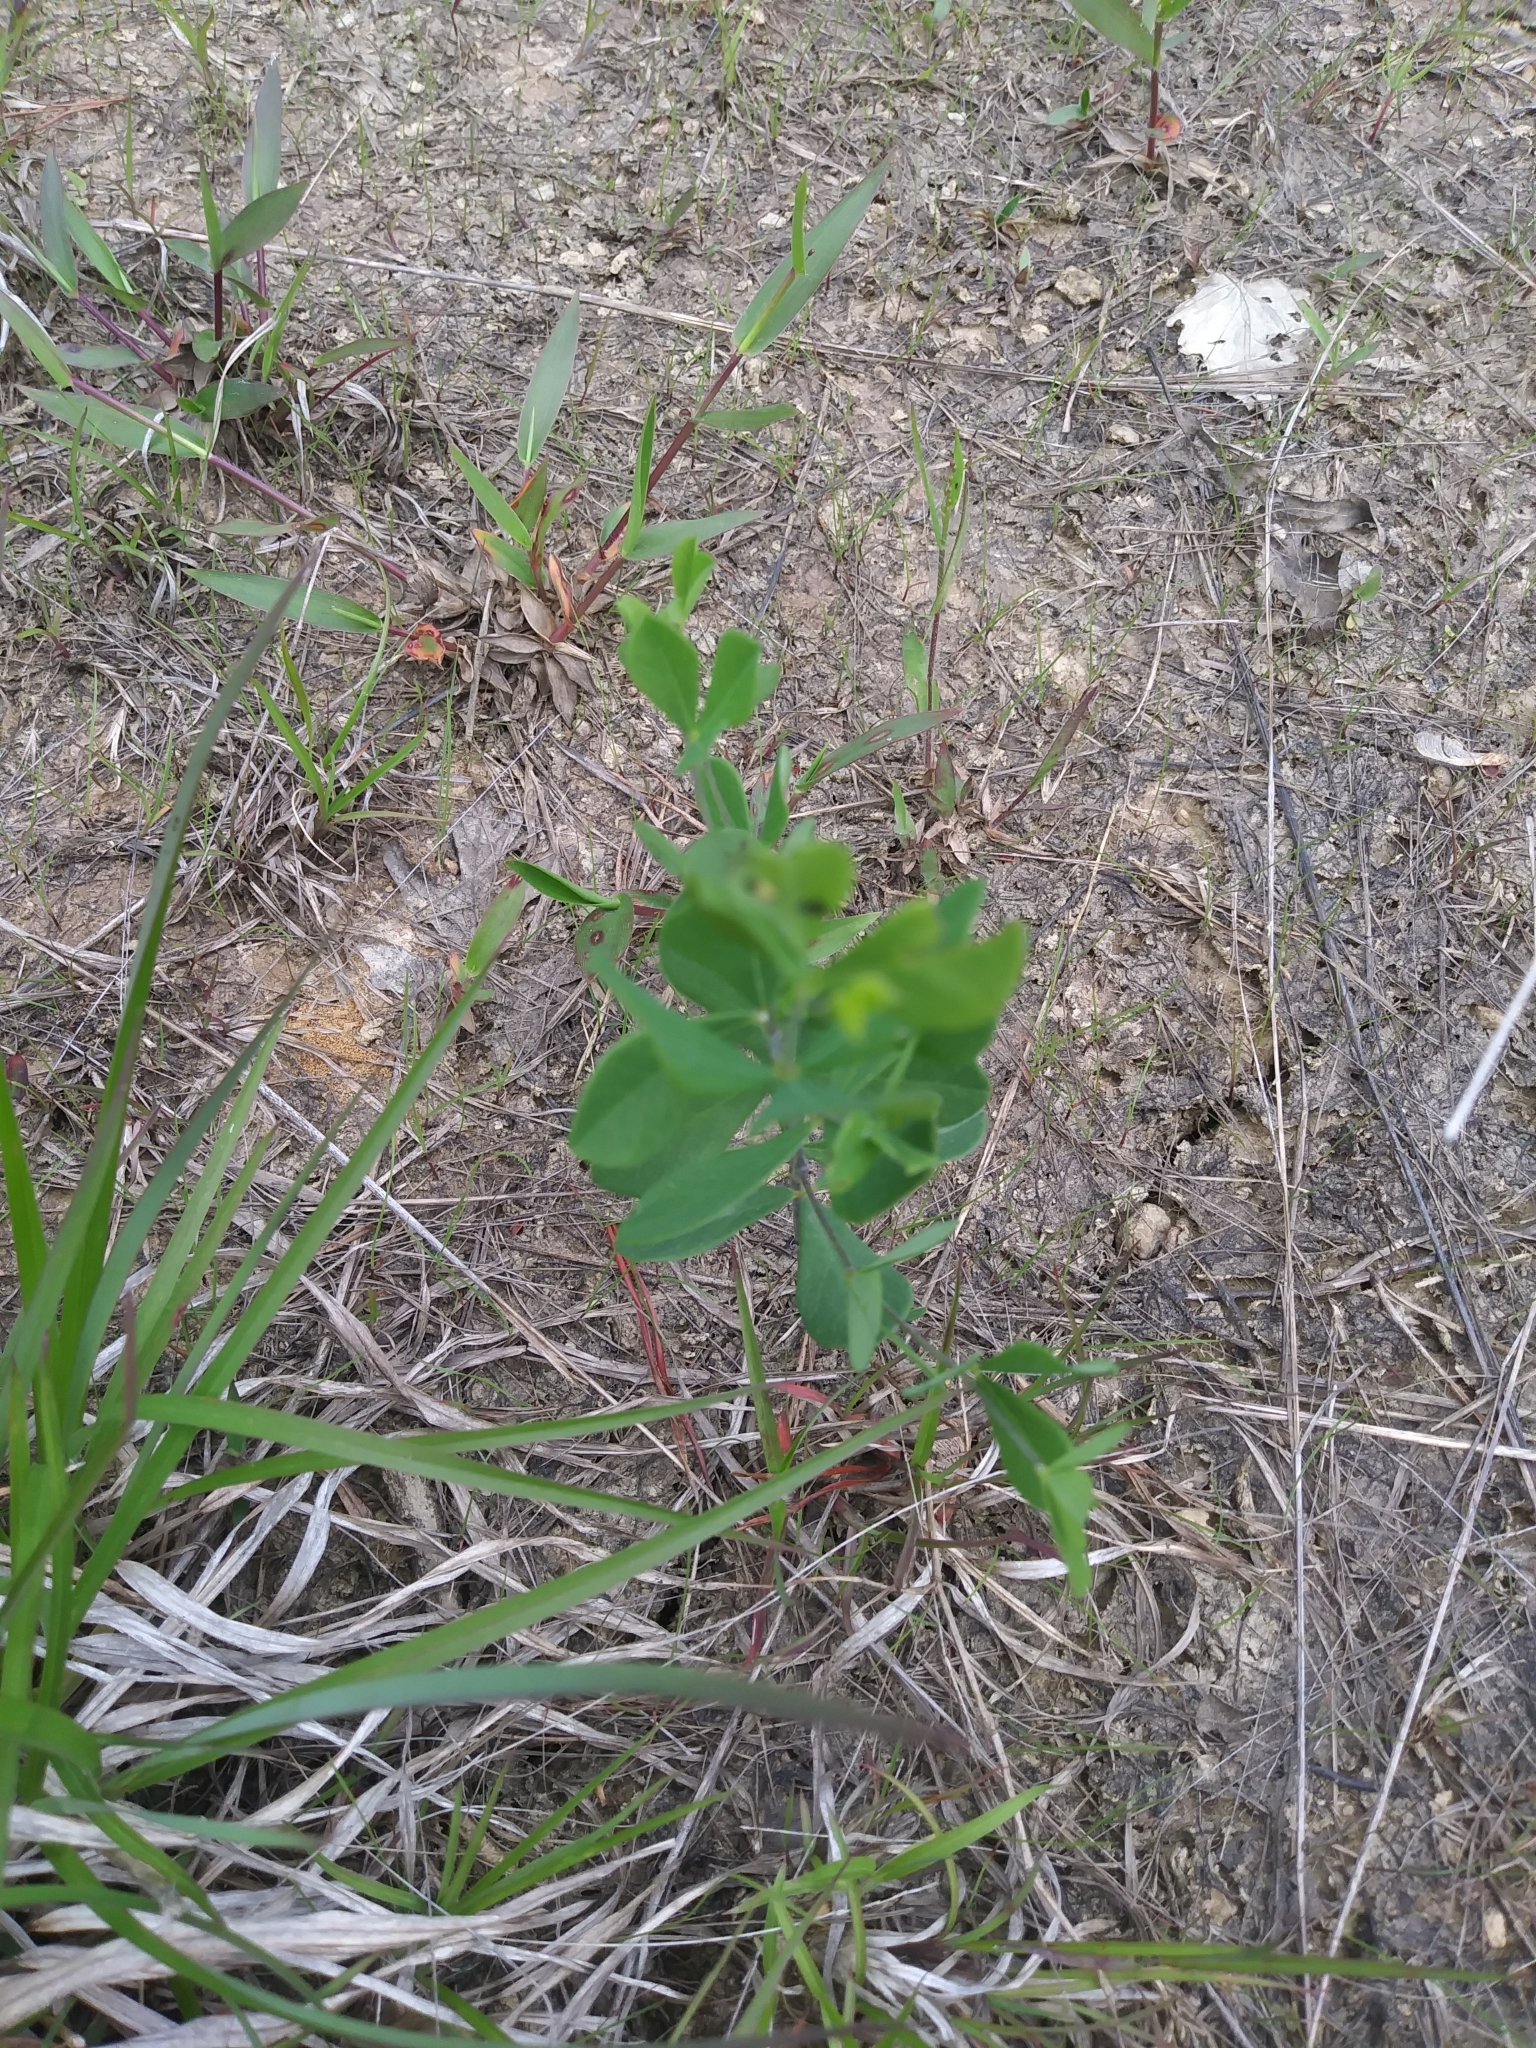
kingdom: Plantae
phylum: Tracheophyta
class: Magnoliopsida
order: Fabales
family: Fabaceae
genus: Baptisia
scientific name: Baptisia tinctoria
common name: Wild indigo
